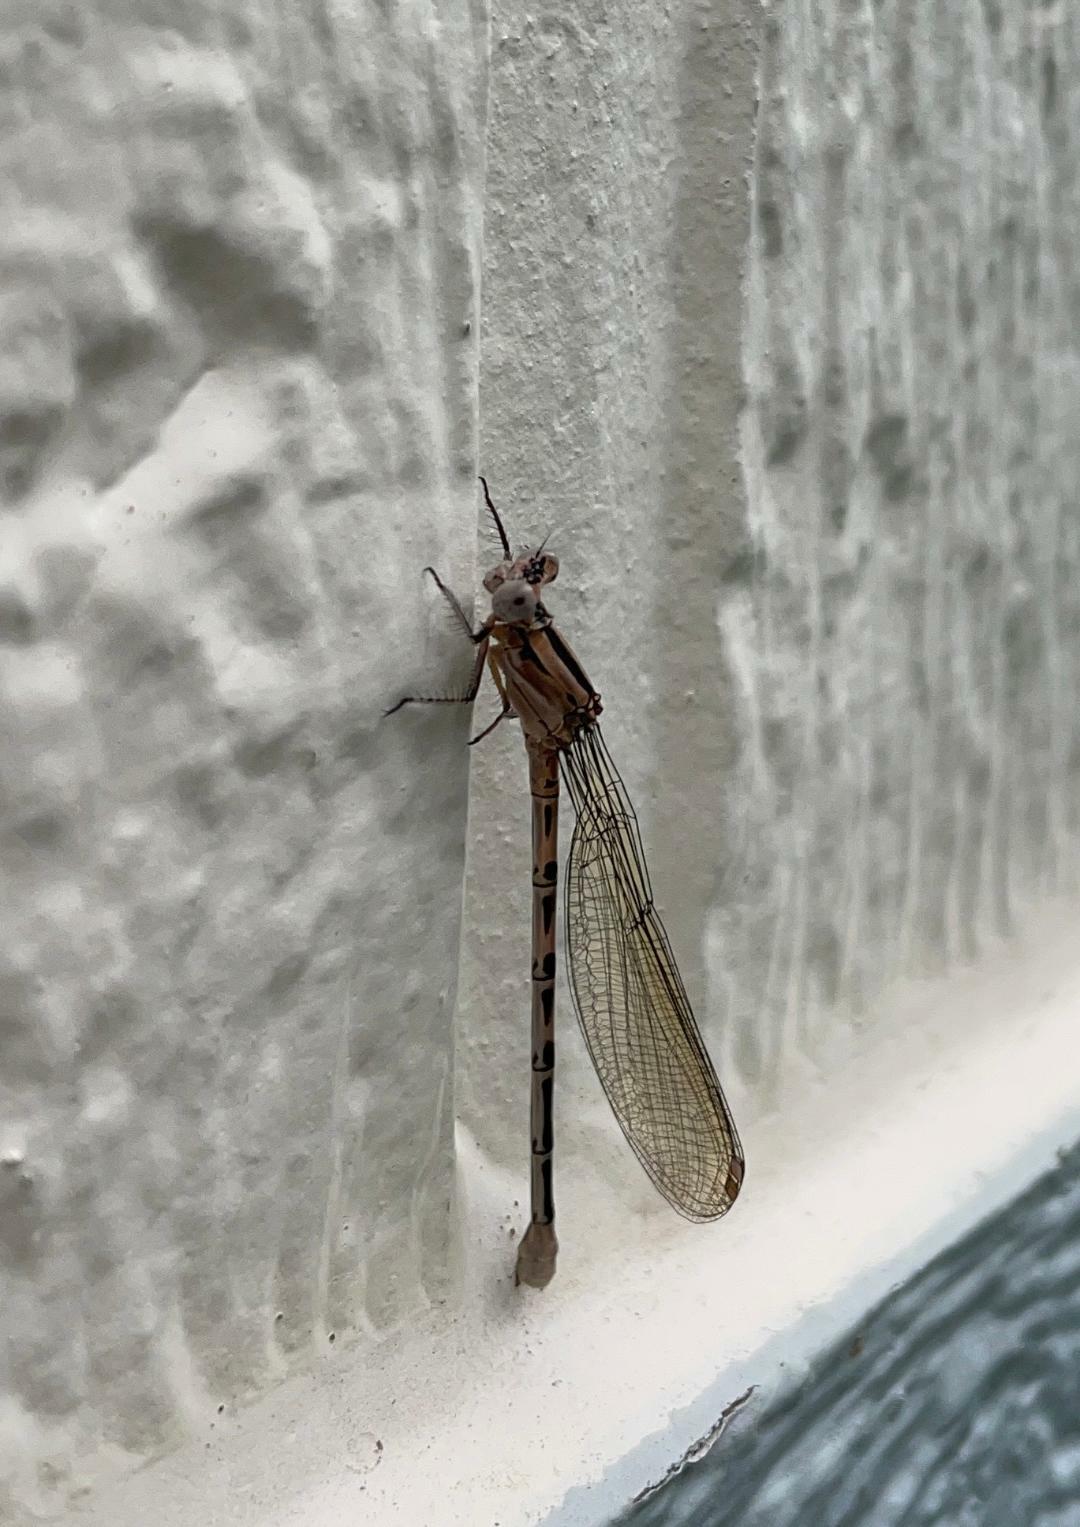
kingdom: Animalia
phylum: Arthropoda
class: Insecta
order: Odonata
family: Coenagrionidae
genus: Argia
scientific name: Argia vivida
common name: Vivid dancer
